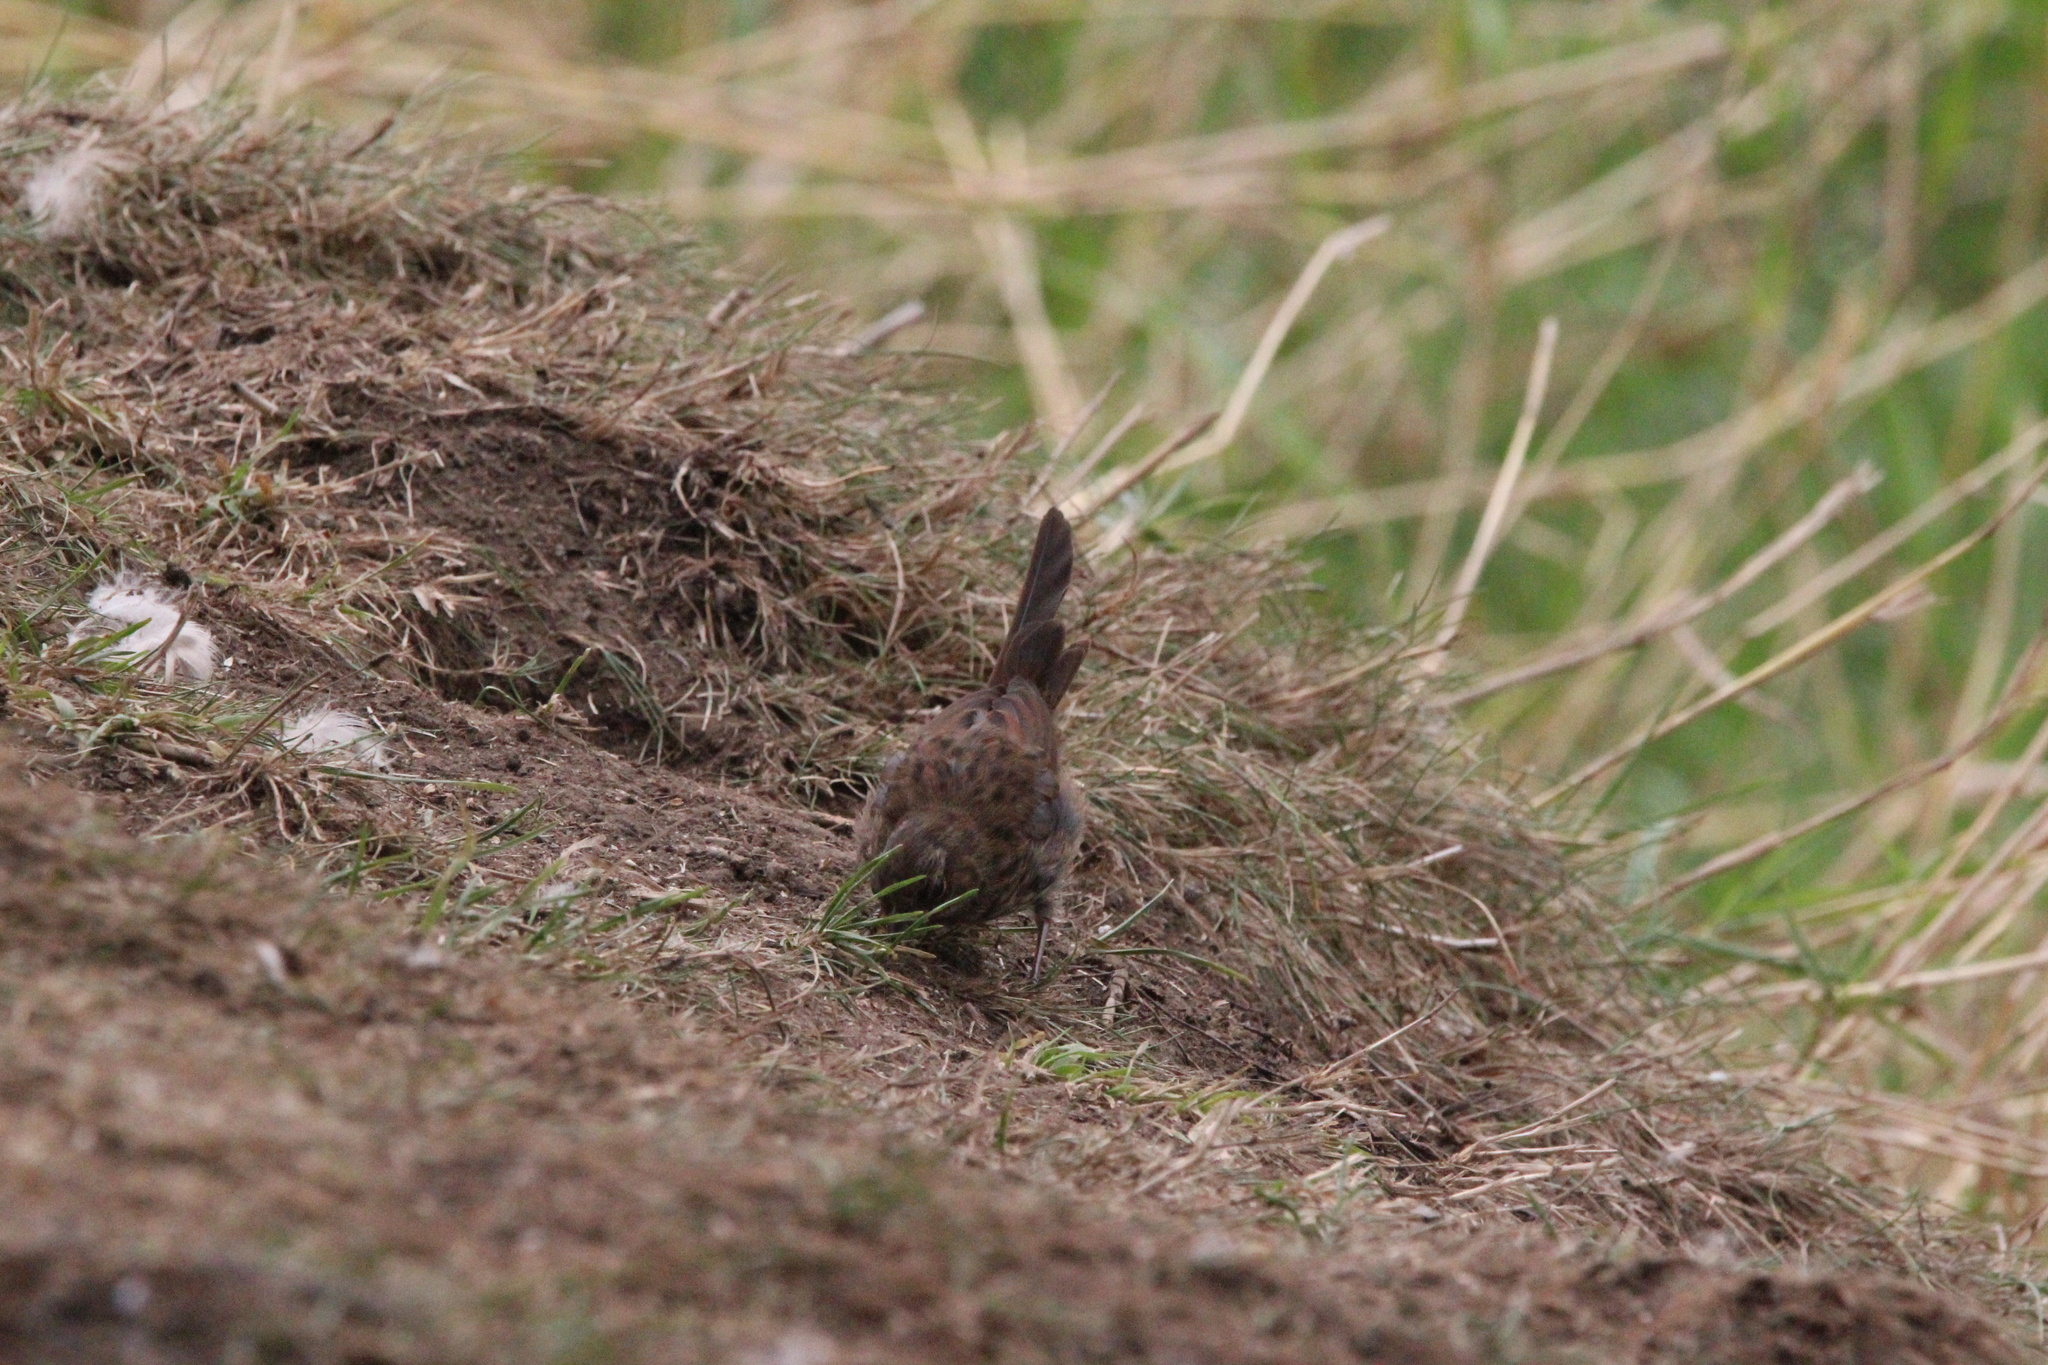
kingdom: Animalia
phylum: Chordata
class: Aves
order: Passeriformes
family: Passerellidae
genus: Melospiza
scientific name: Melospiza melodia
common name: Song sparrow
